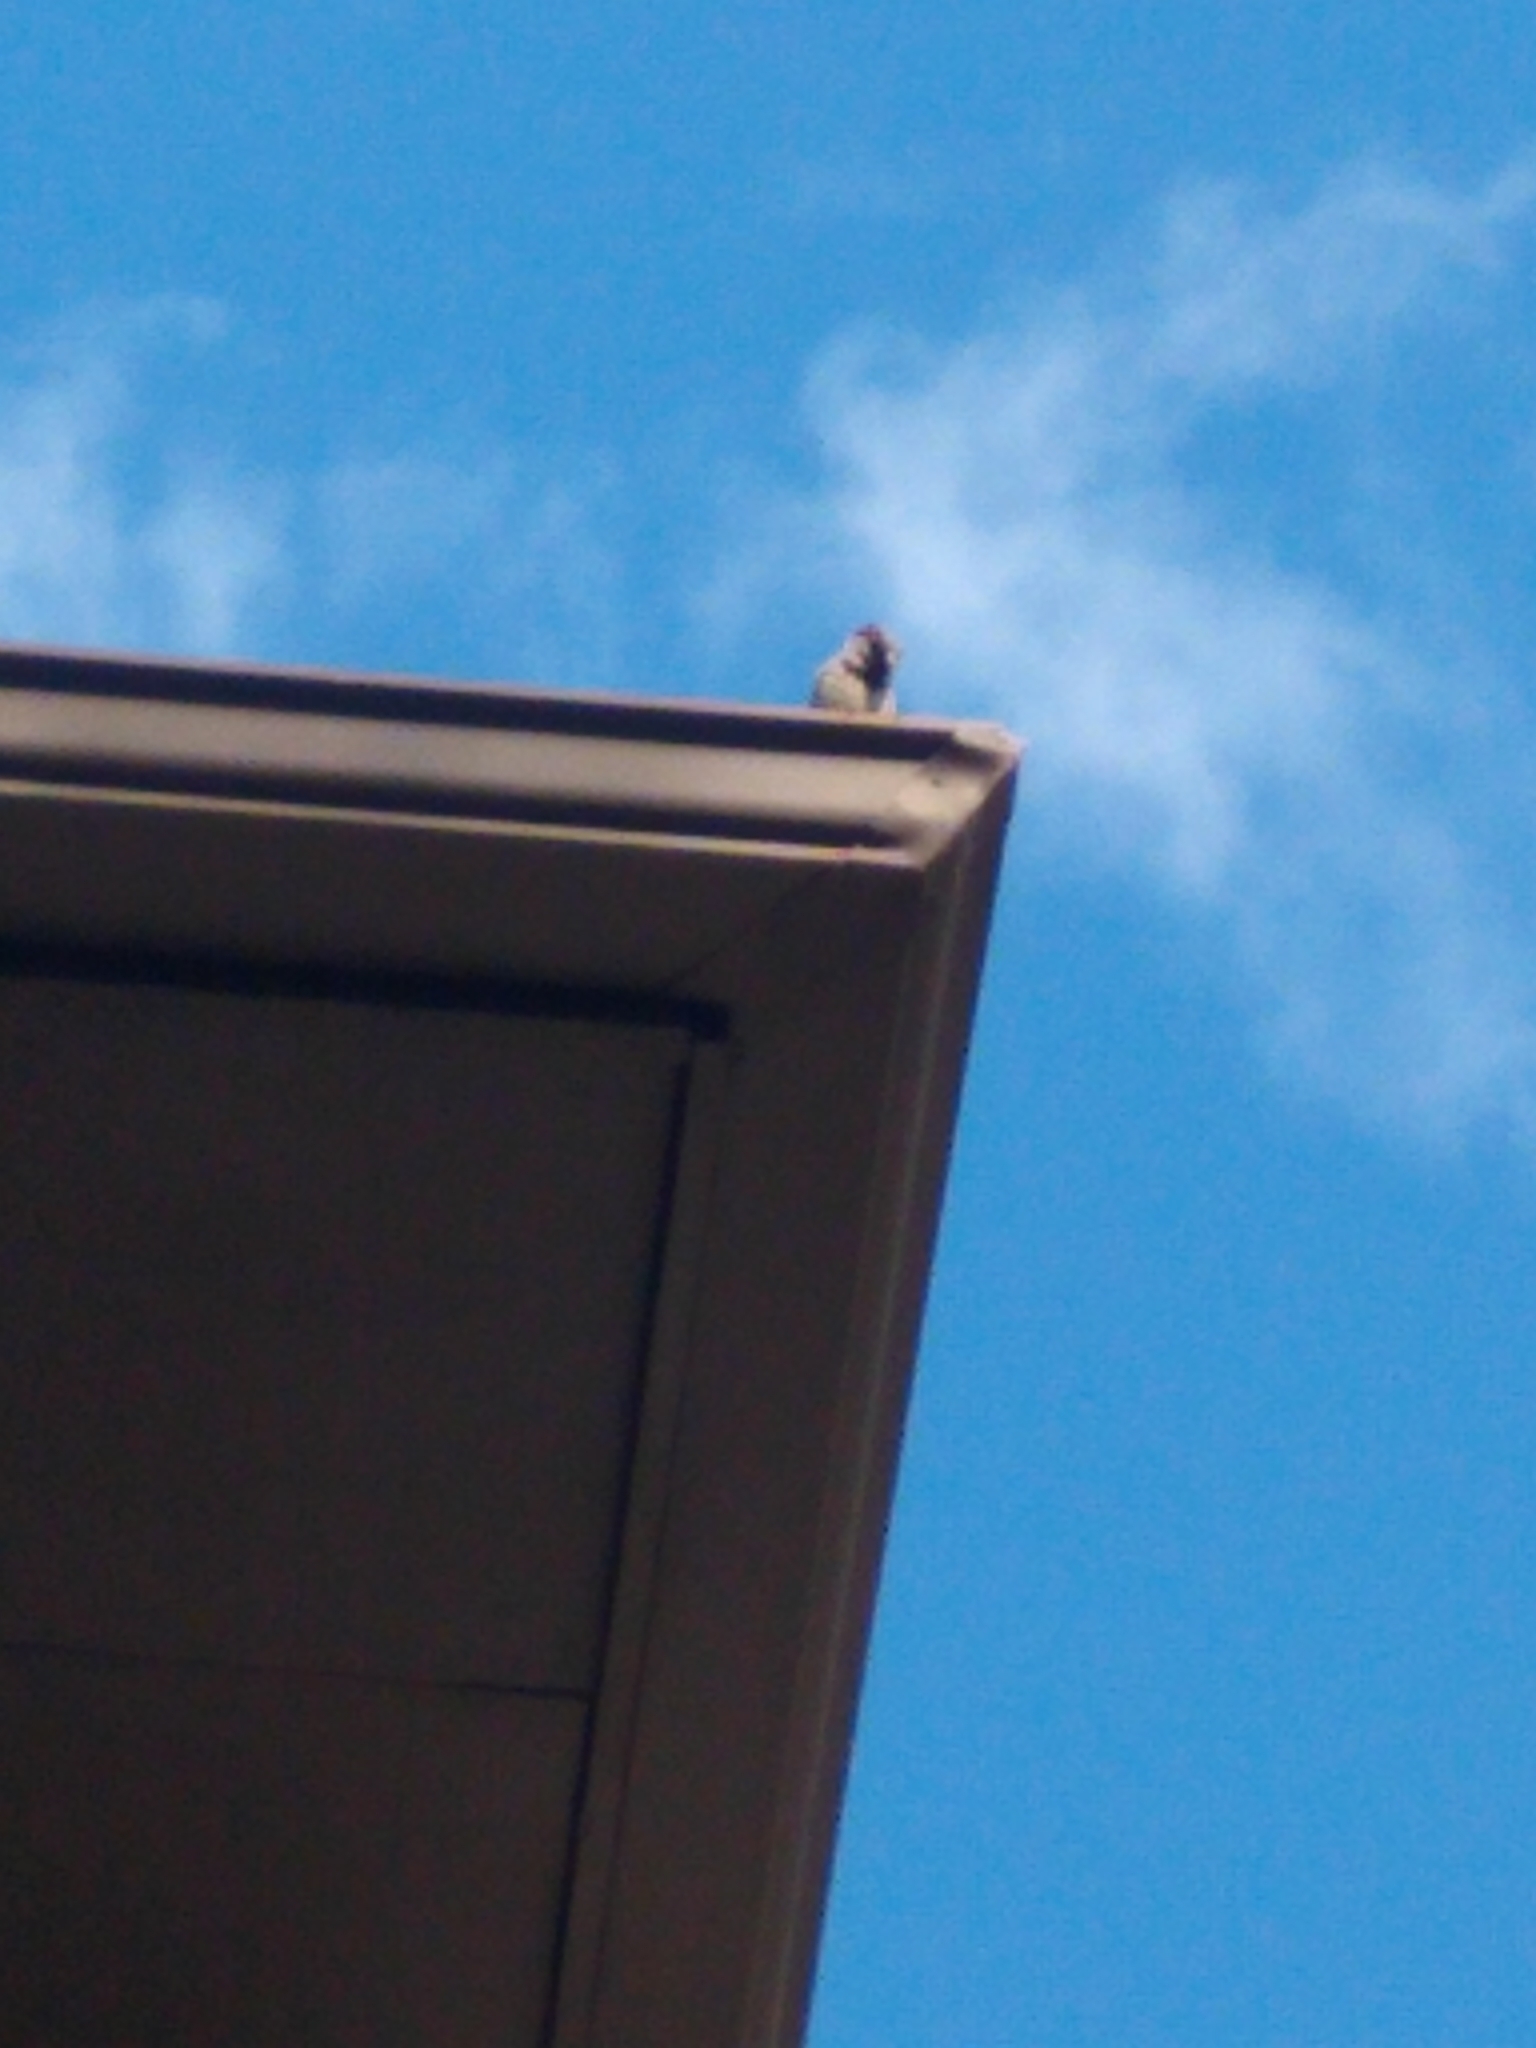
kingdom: Animalia
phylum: Chordata
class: Aves
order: Passeriformes
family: Passeridae
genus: Passer
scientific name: Passer domesticus
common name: House sparrow
